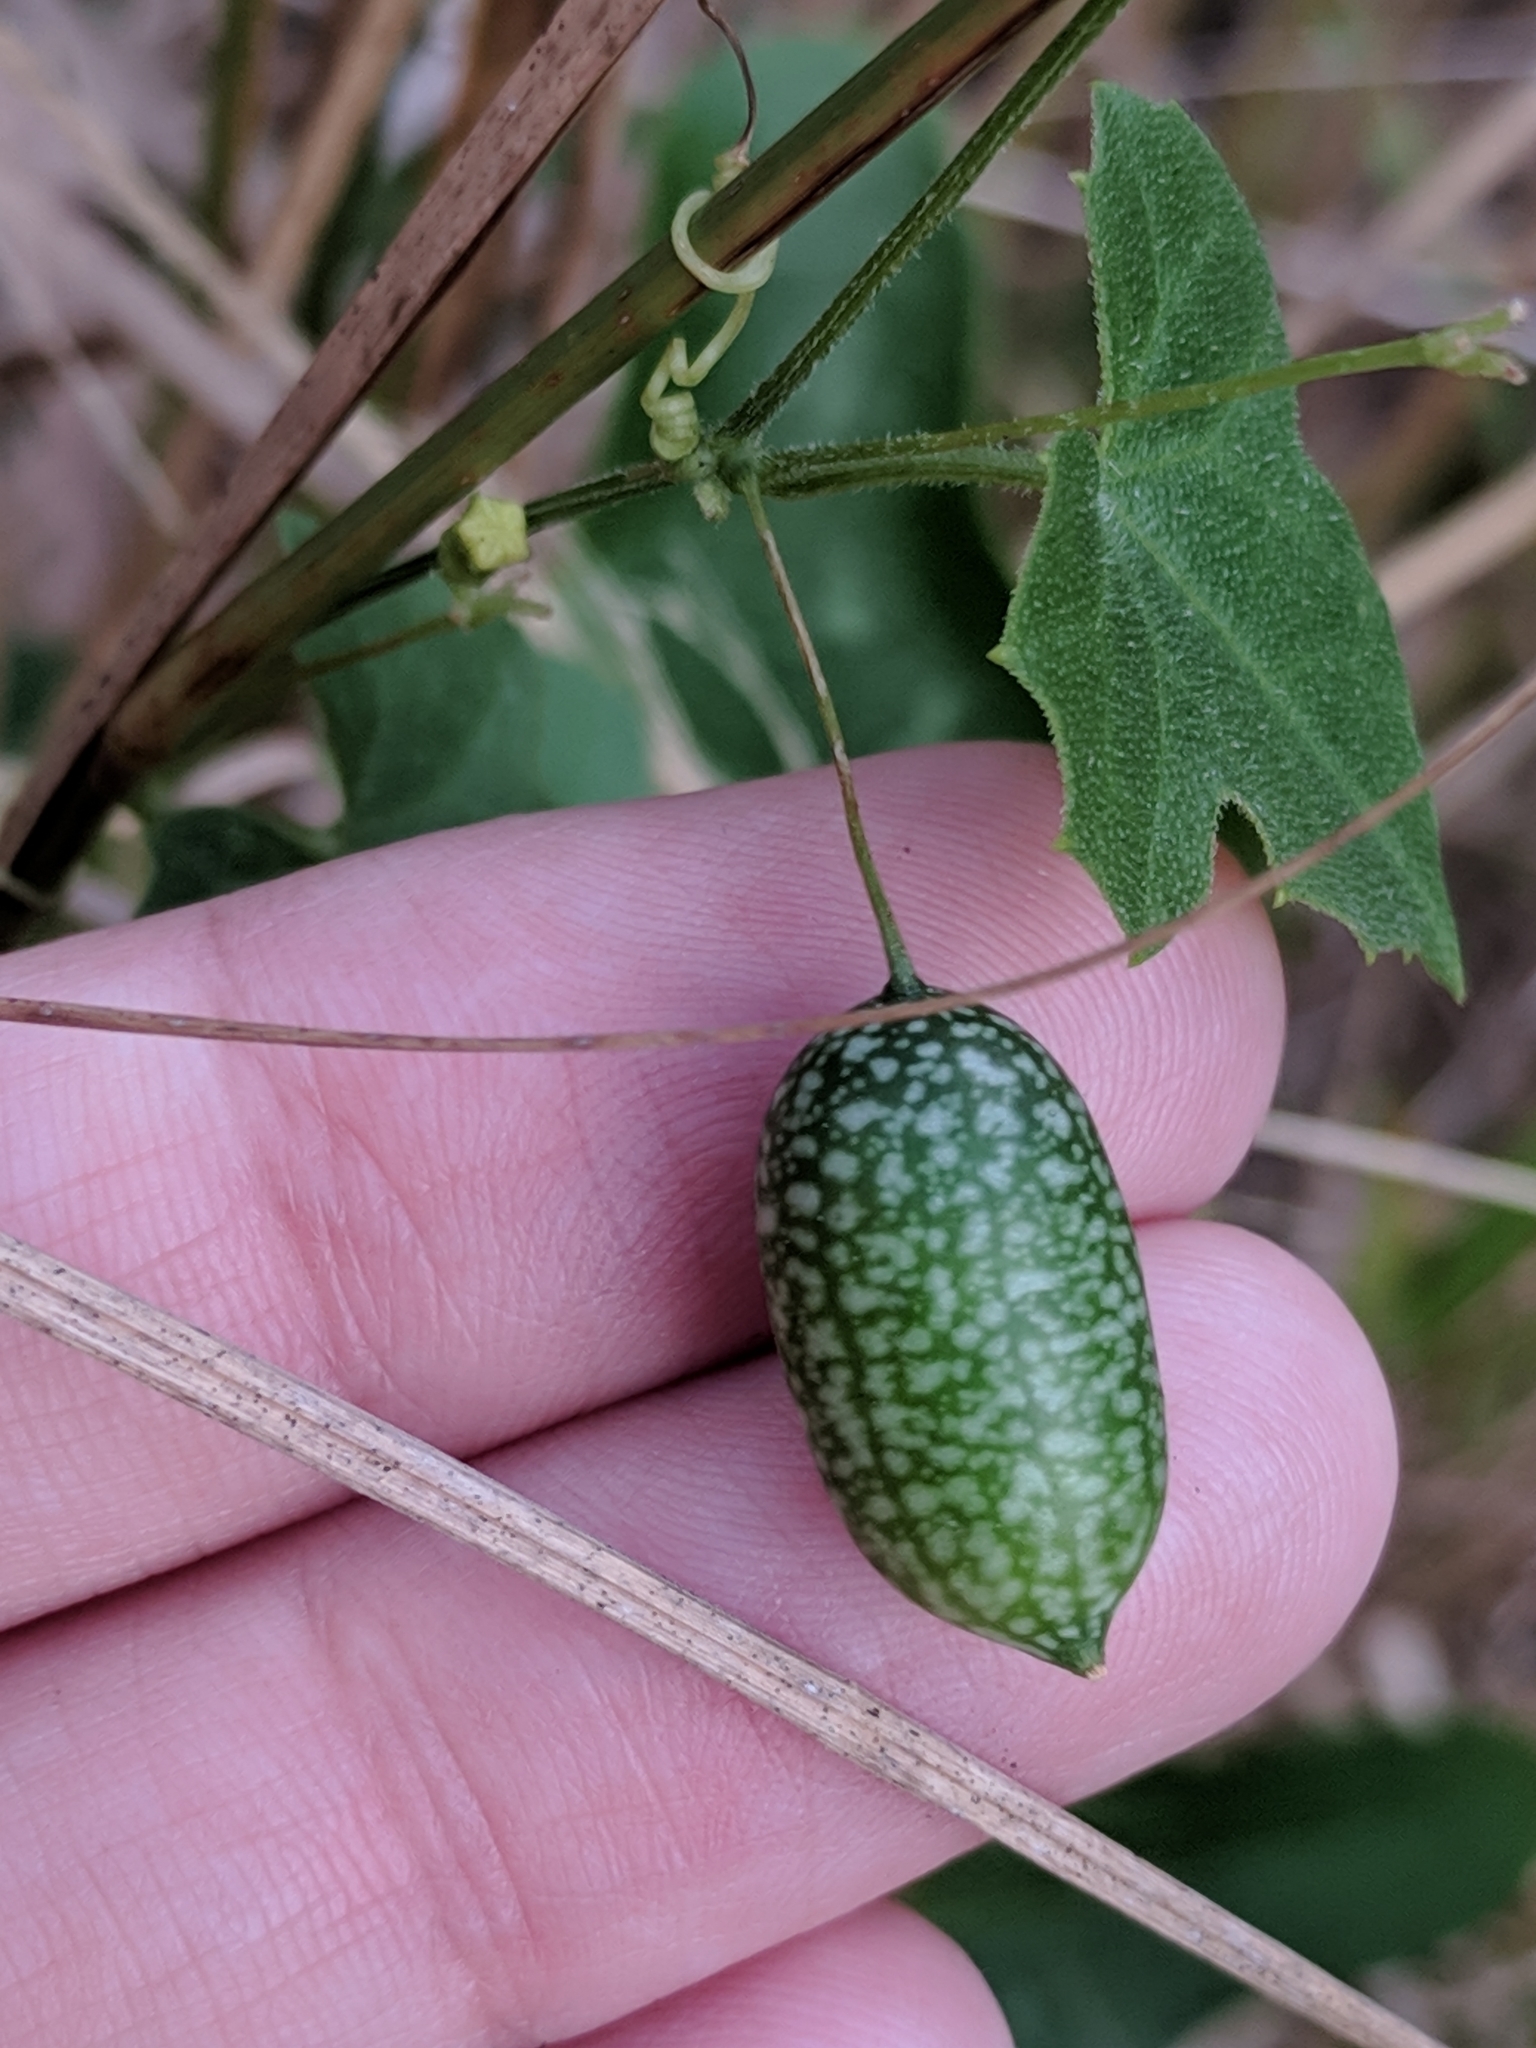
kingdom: Plantae
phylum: Tracheophyta
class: Magnoliopsida
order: Cucurbitales
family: Cucurbitaceae
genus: Melothria
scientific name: Melothria pendula
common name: Creeping-cucumber
